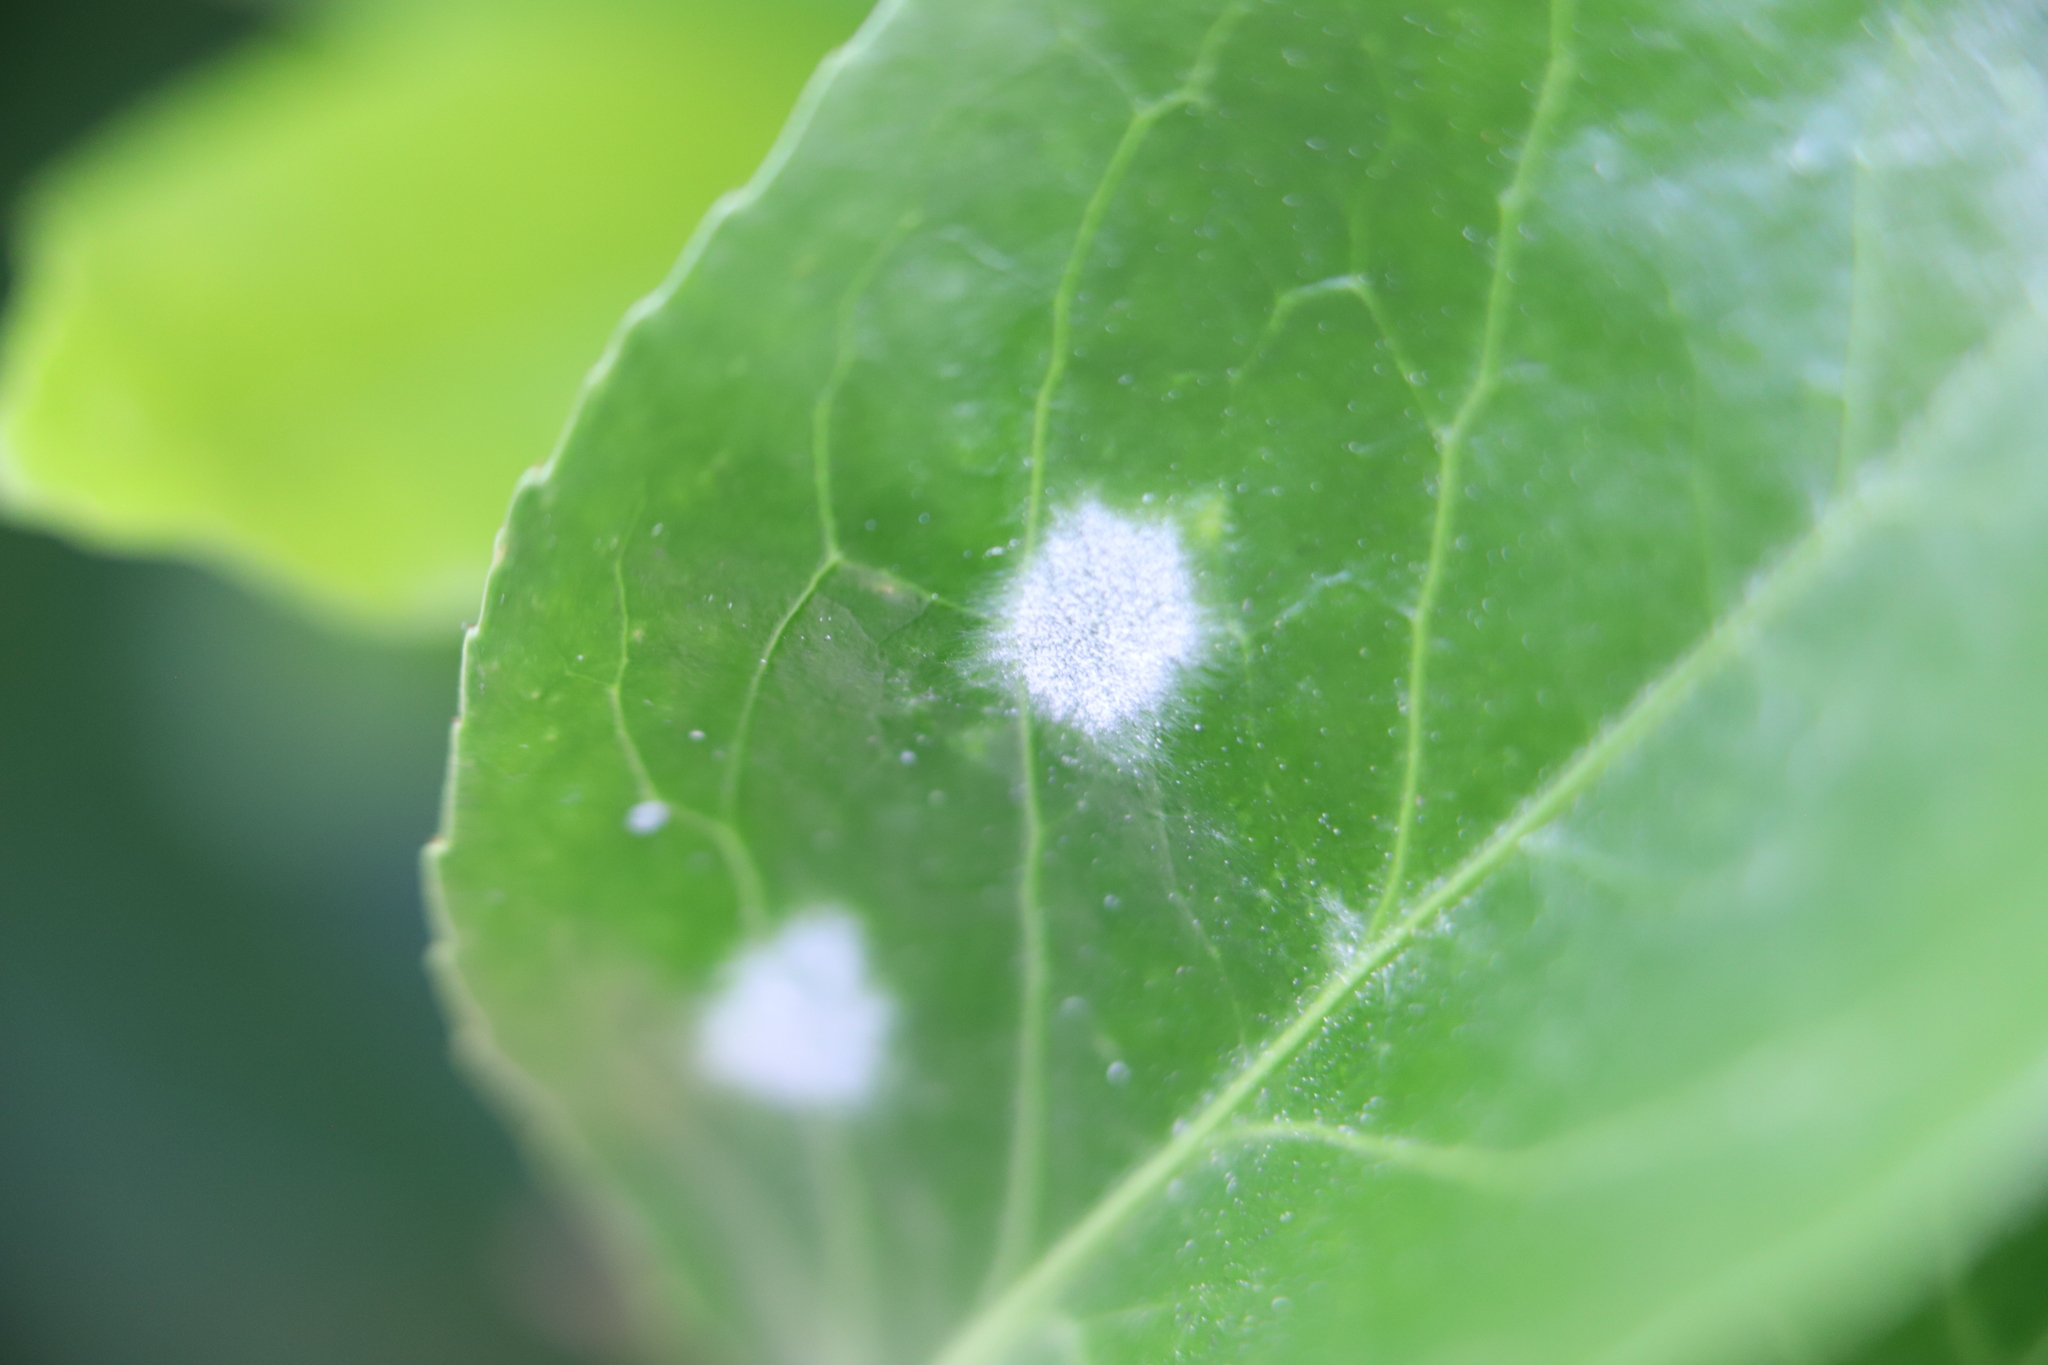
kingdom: Fungi
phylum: Ascomycota
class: Leotiomycetes
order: Helotiales
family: Erysiphaceae
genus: Erysiphe
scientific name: Erysiphe euonymicola
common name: Spindletree mildew
